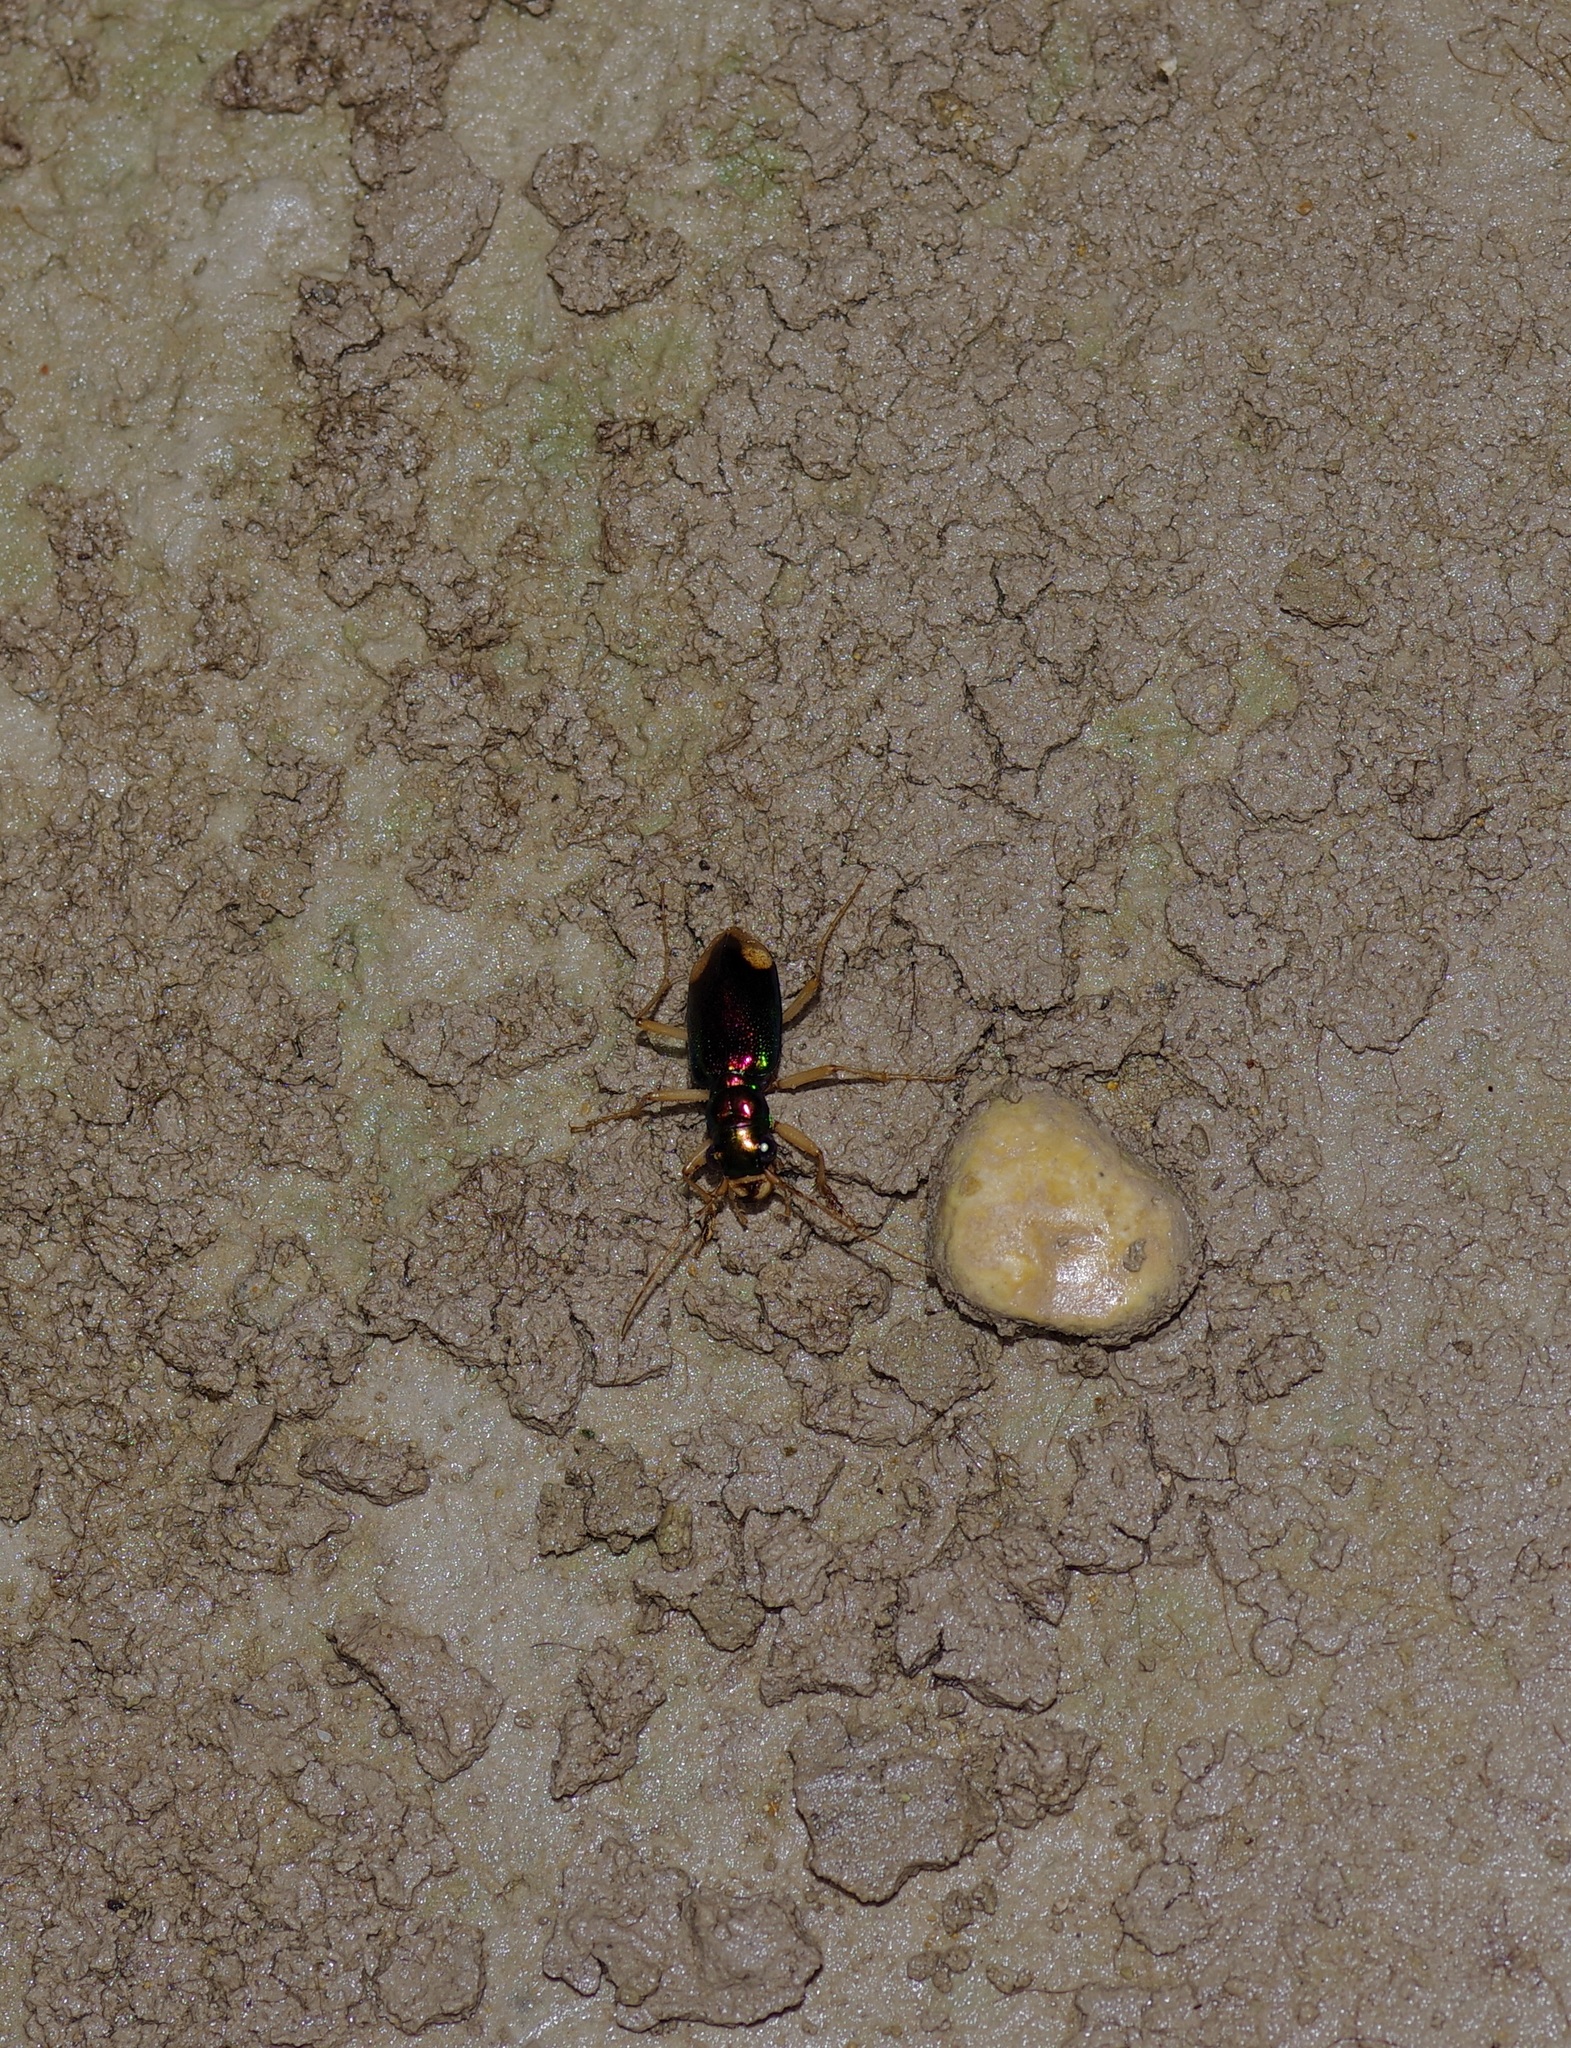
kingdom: Animalia
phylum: Arthropoda
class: Insecta
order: Coleoptera
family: Carabidae
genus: Tetracha
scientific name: Tetracha carolina
